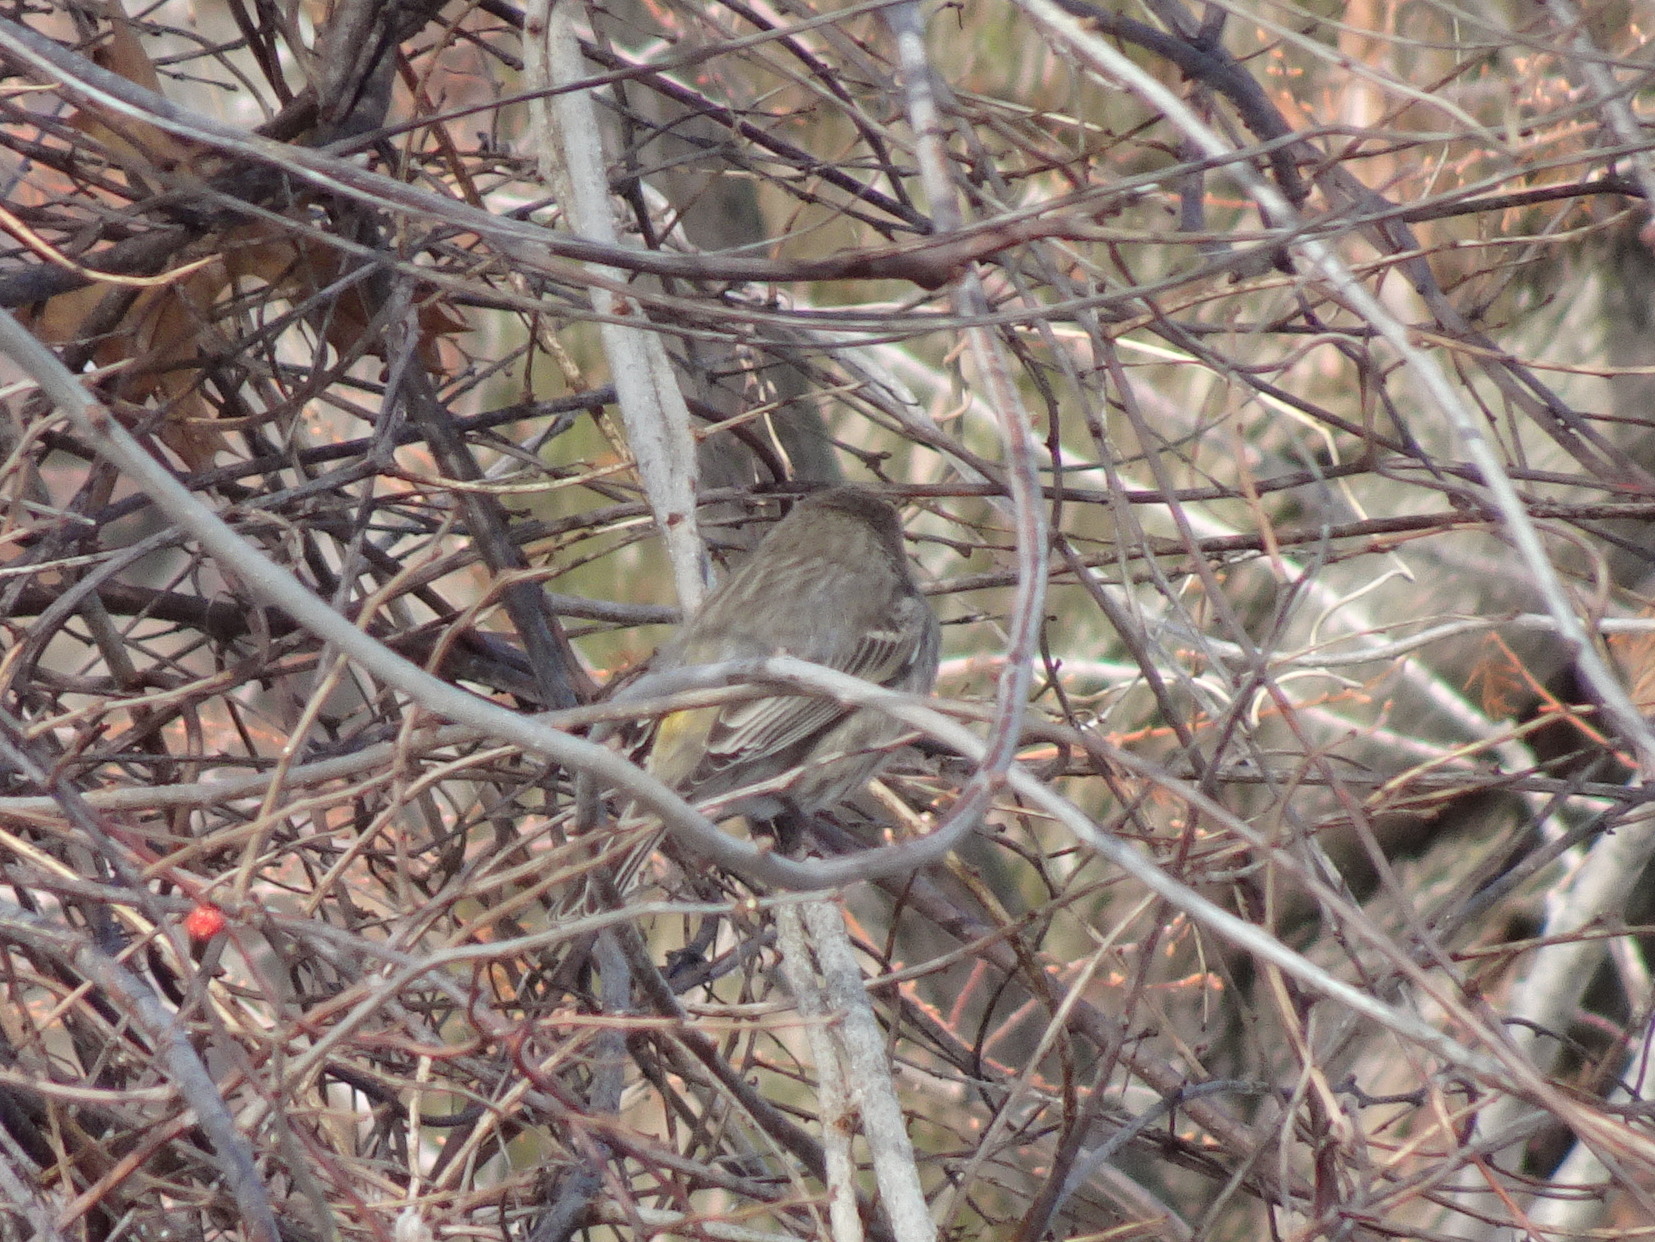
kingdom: Animalia
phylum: Chordata
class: Aves
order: Passeriformes
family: Fringillidae
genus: Haemorhous
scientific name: Haemorhous mexicanus
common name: House finch
